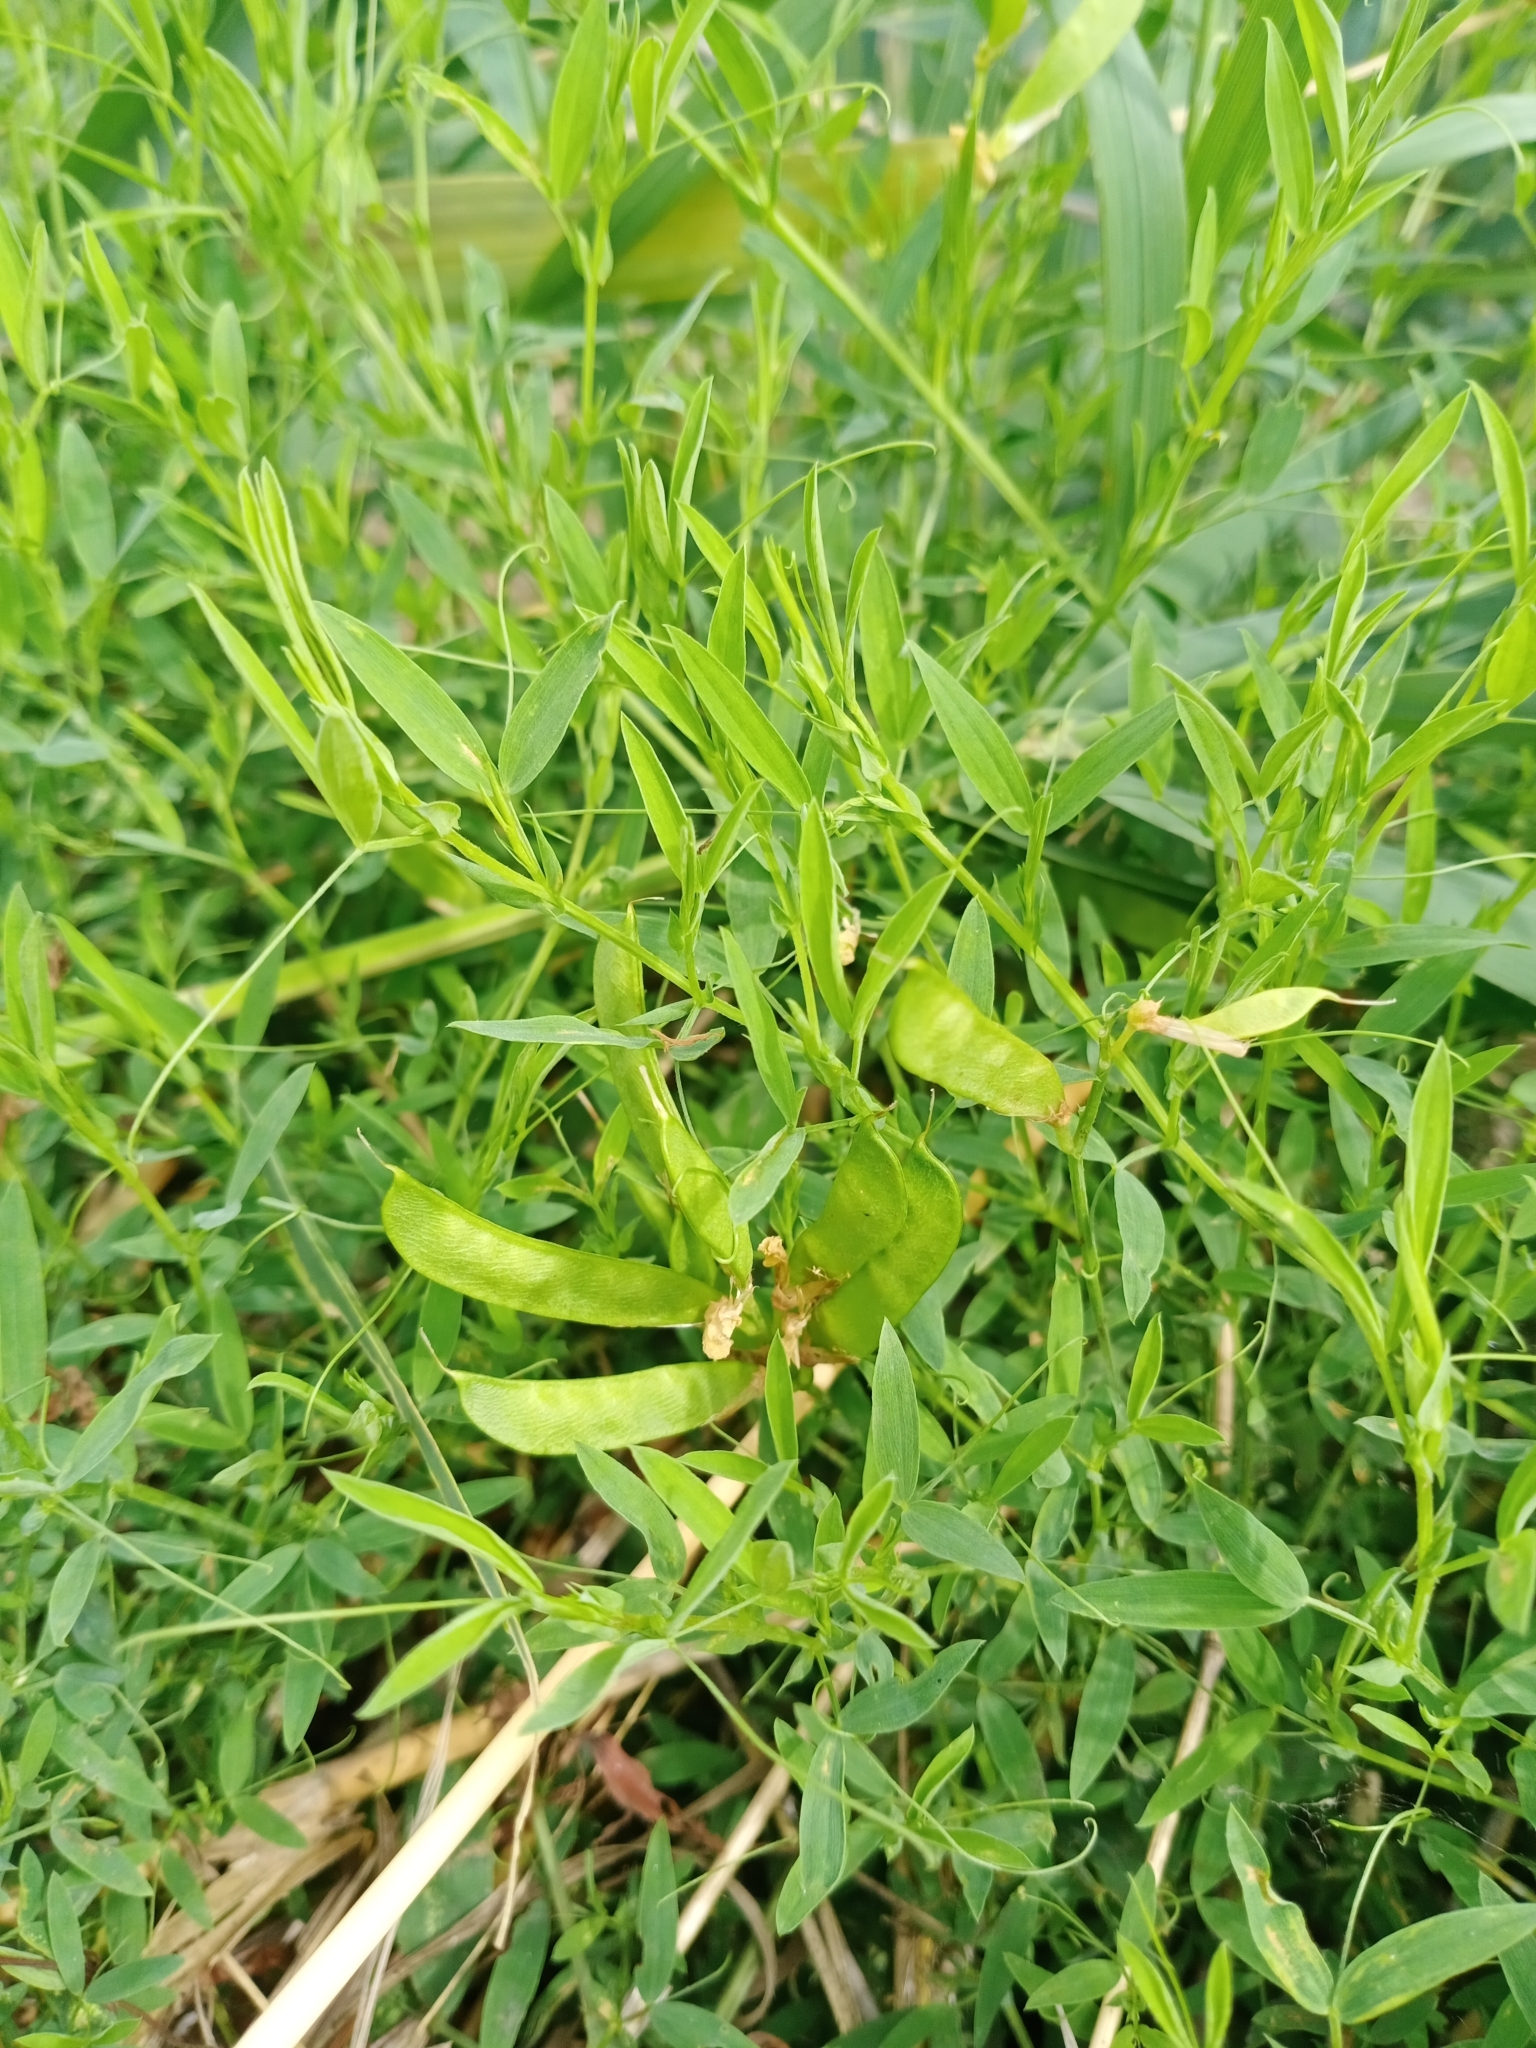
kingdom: Plantae
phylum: Tracheophyta
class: Magnoliopsida
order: Fabales
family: Fabaceae
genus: Lathyrus
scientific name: Lathyrus pratensis
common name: Meadow vetchling
